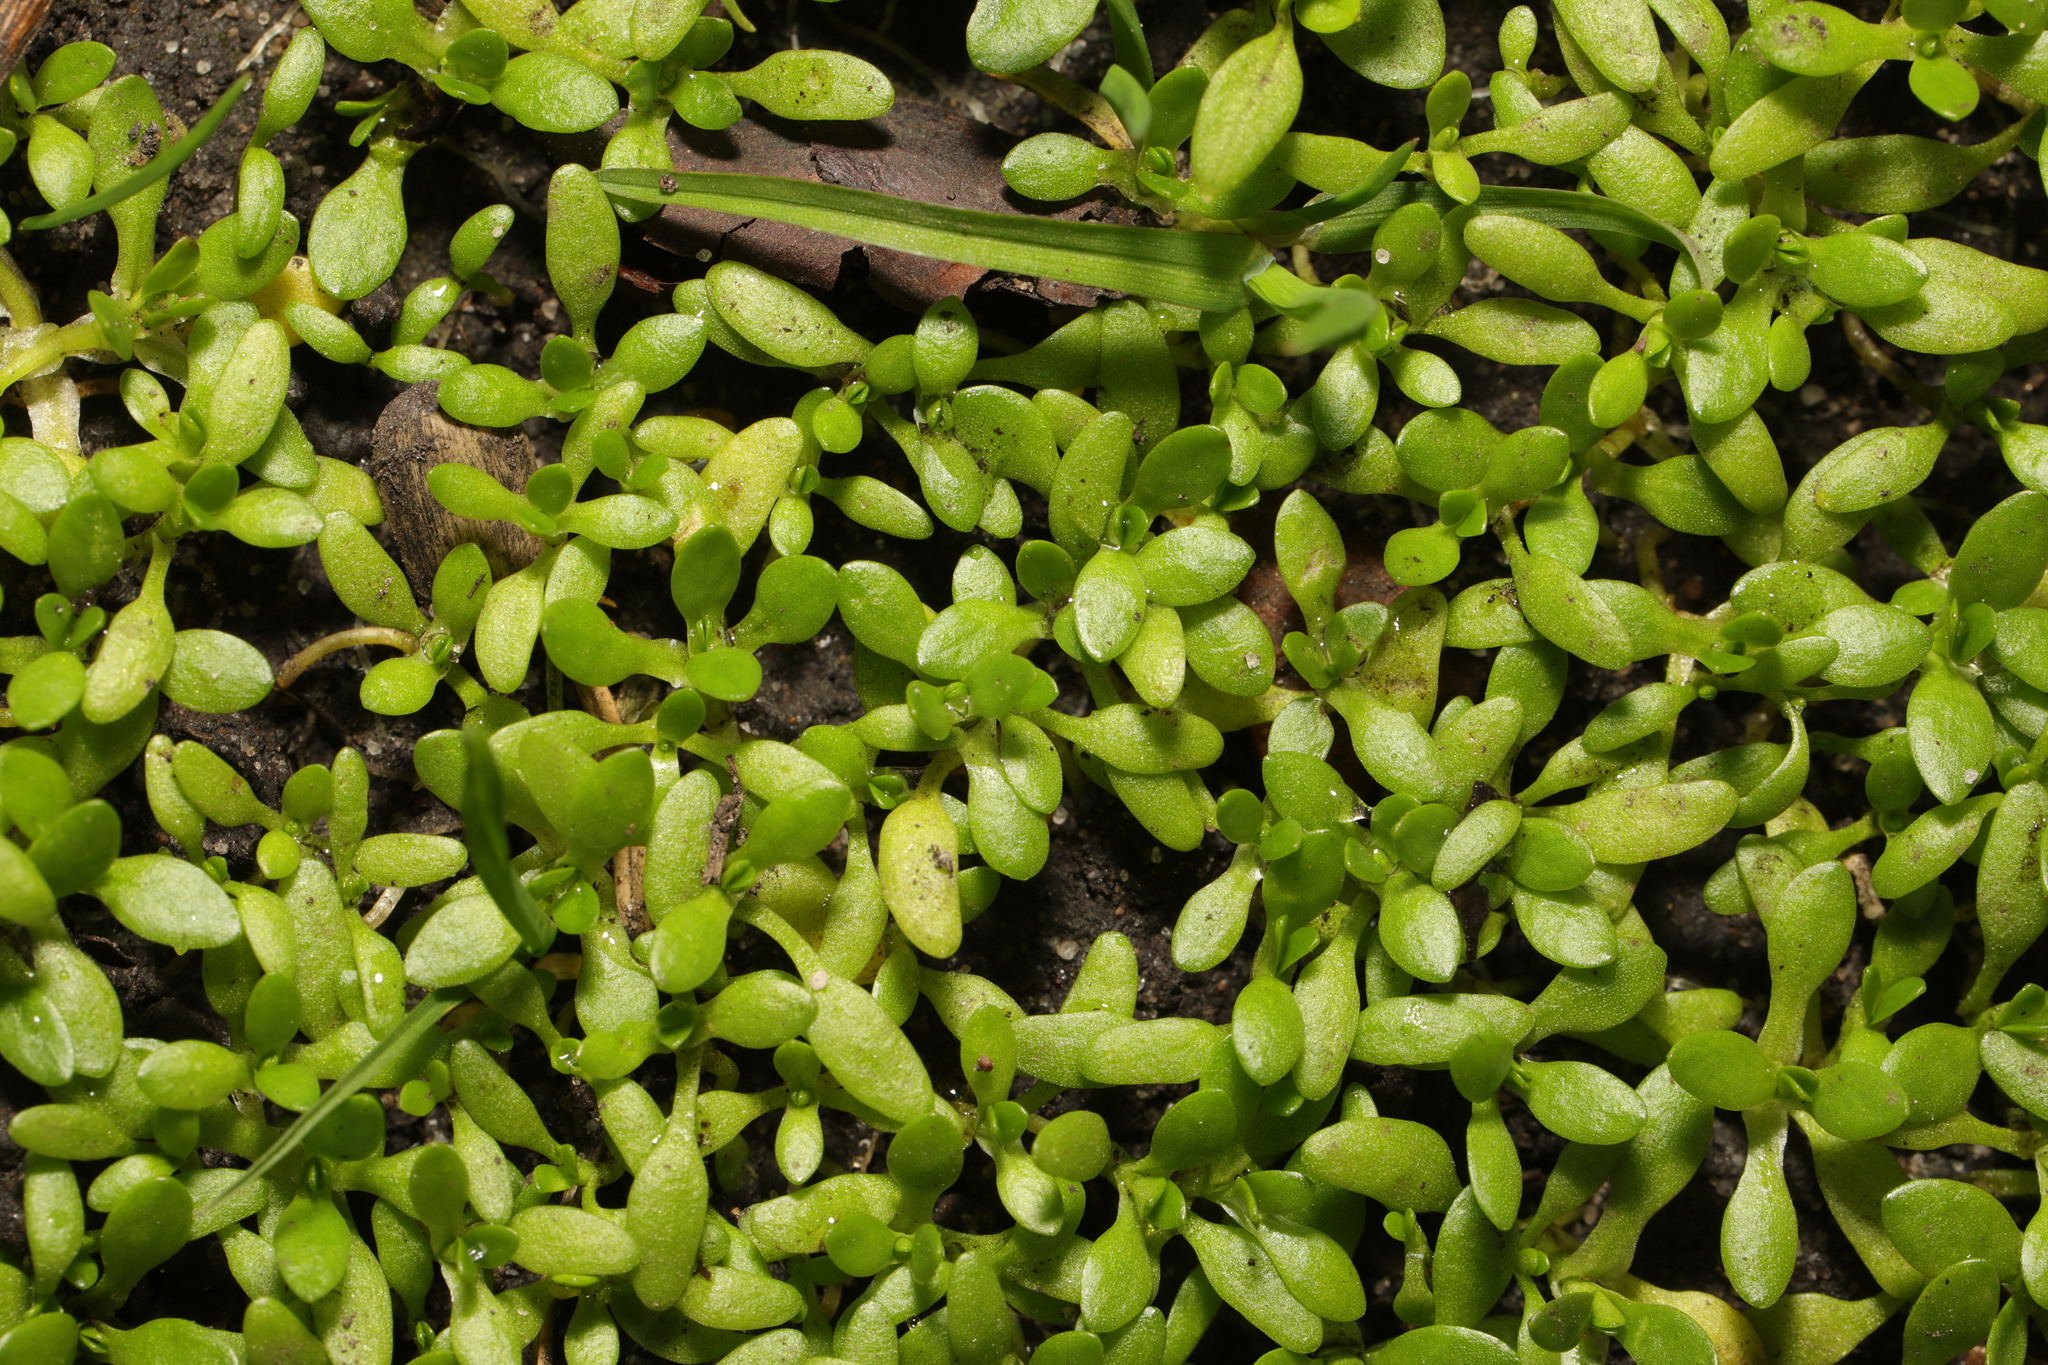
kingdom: Plantae
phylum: Tracheophyta
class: Magnoliopsida
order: Caryophyllales
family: Montiaceae
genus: Montia
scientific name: Montia fontana
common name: Blinks
